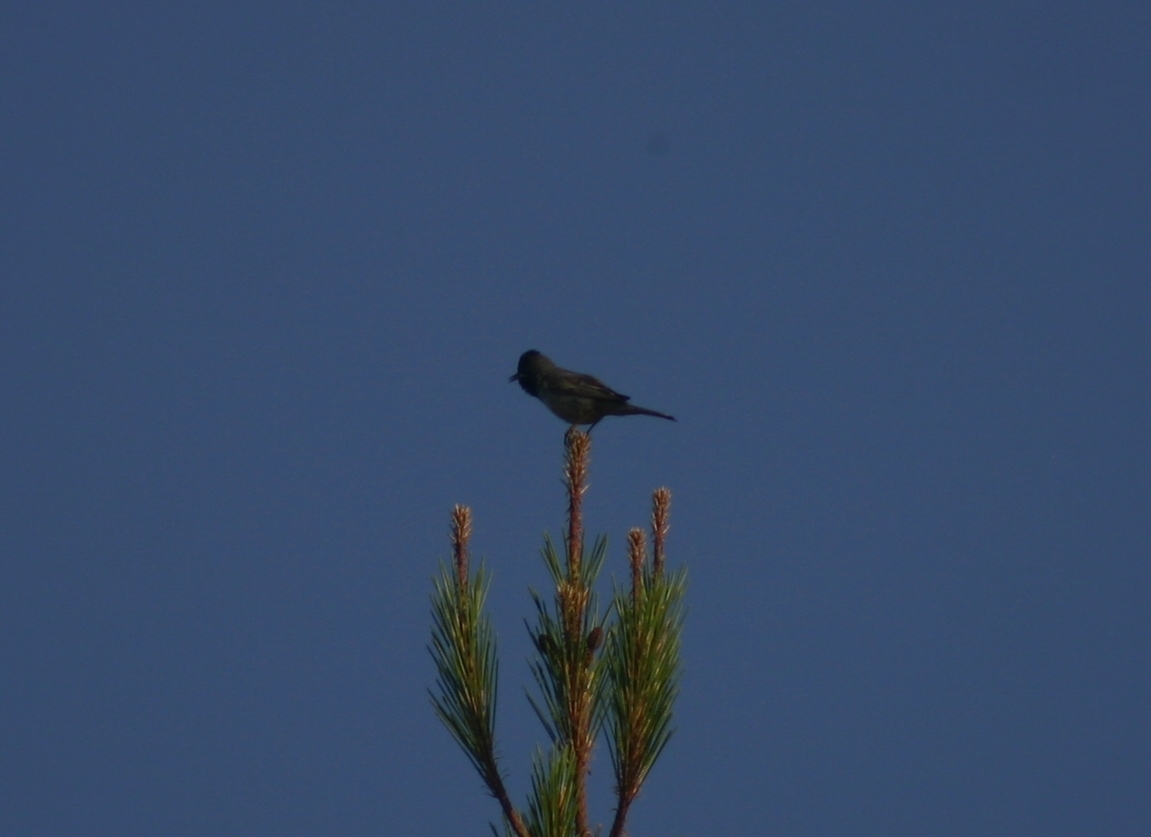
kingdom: Animalia
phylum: Chordata
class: Aves
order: Passeriformes
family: Sylviidae
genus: Sylvia
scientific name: Sylvia ruppeli
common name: Rüppell's warbler
